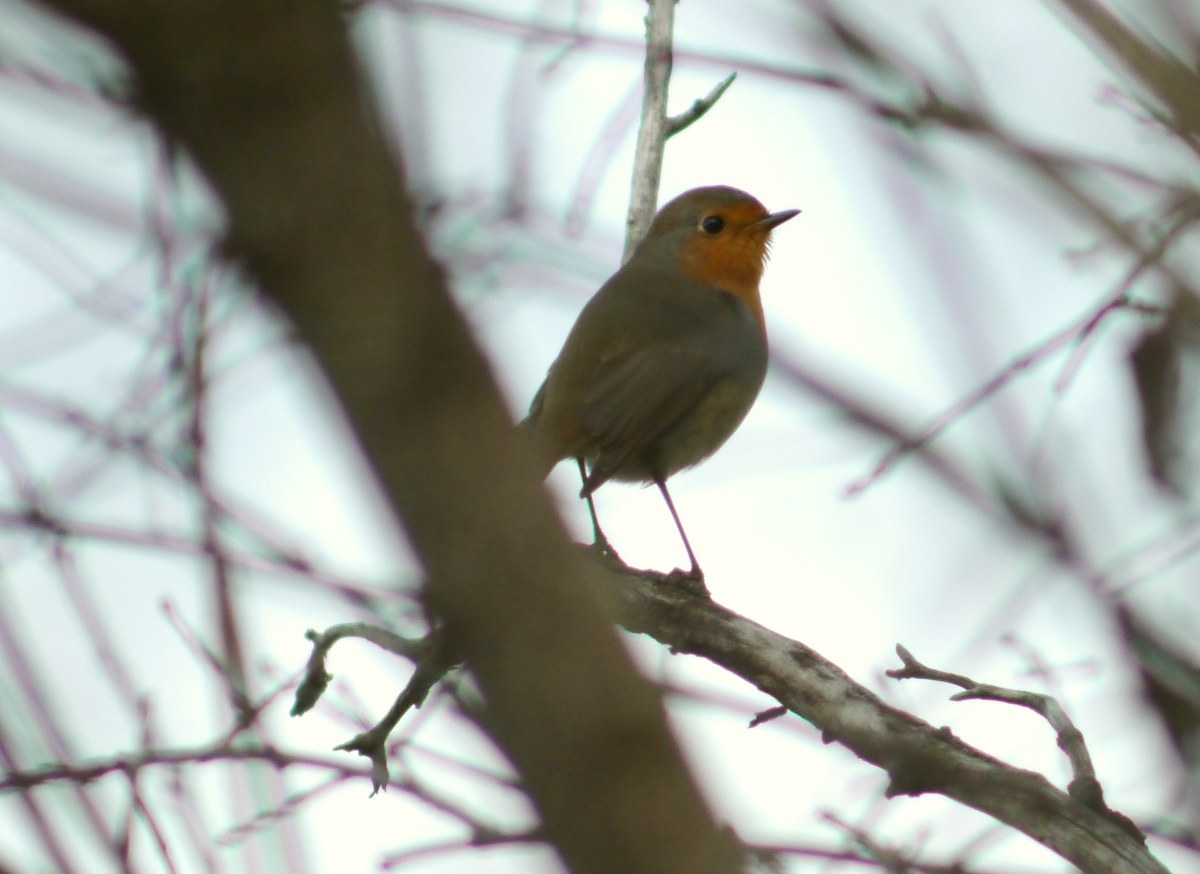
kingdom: Animalia
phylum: Chordata
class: Aves
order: Passeriformes
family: Muscicapidae
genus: Erithacus
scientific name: Erithacus rubecula
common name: European robin
